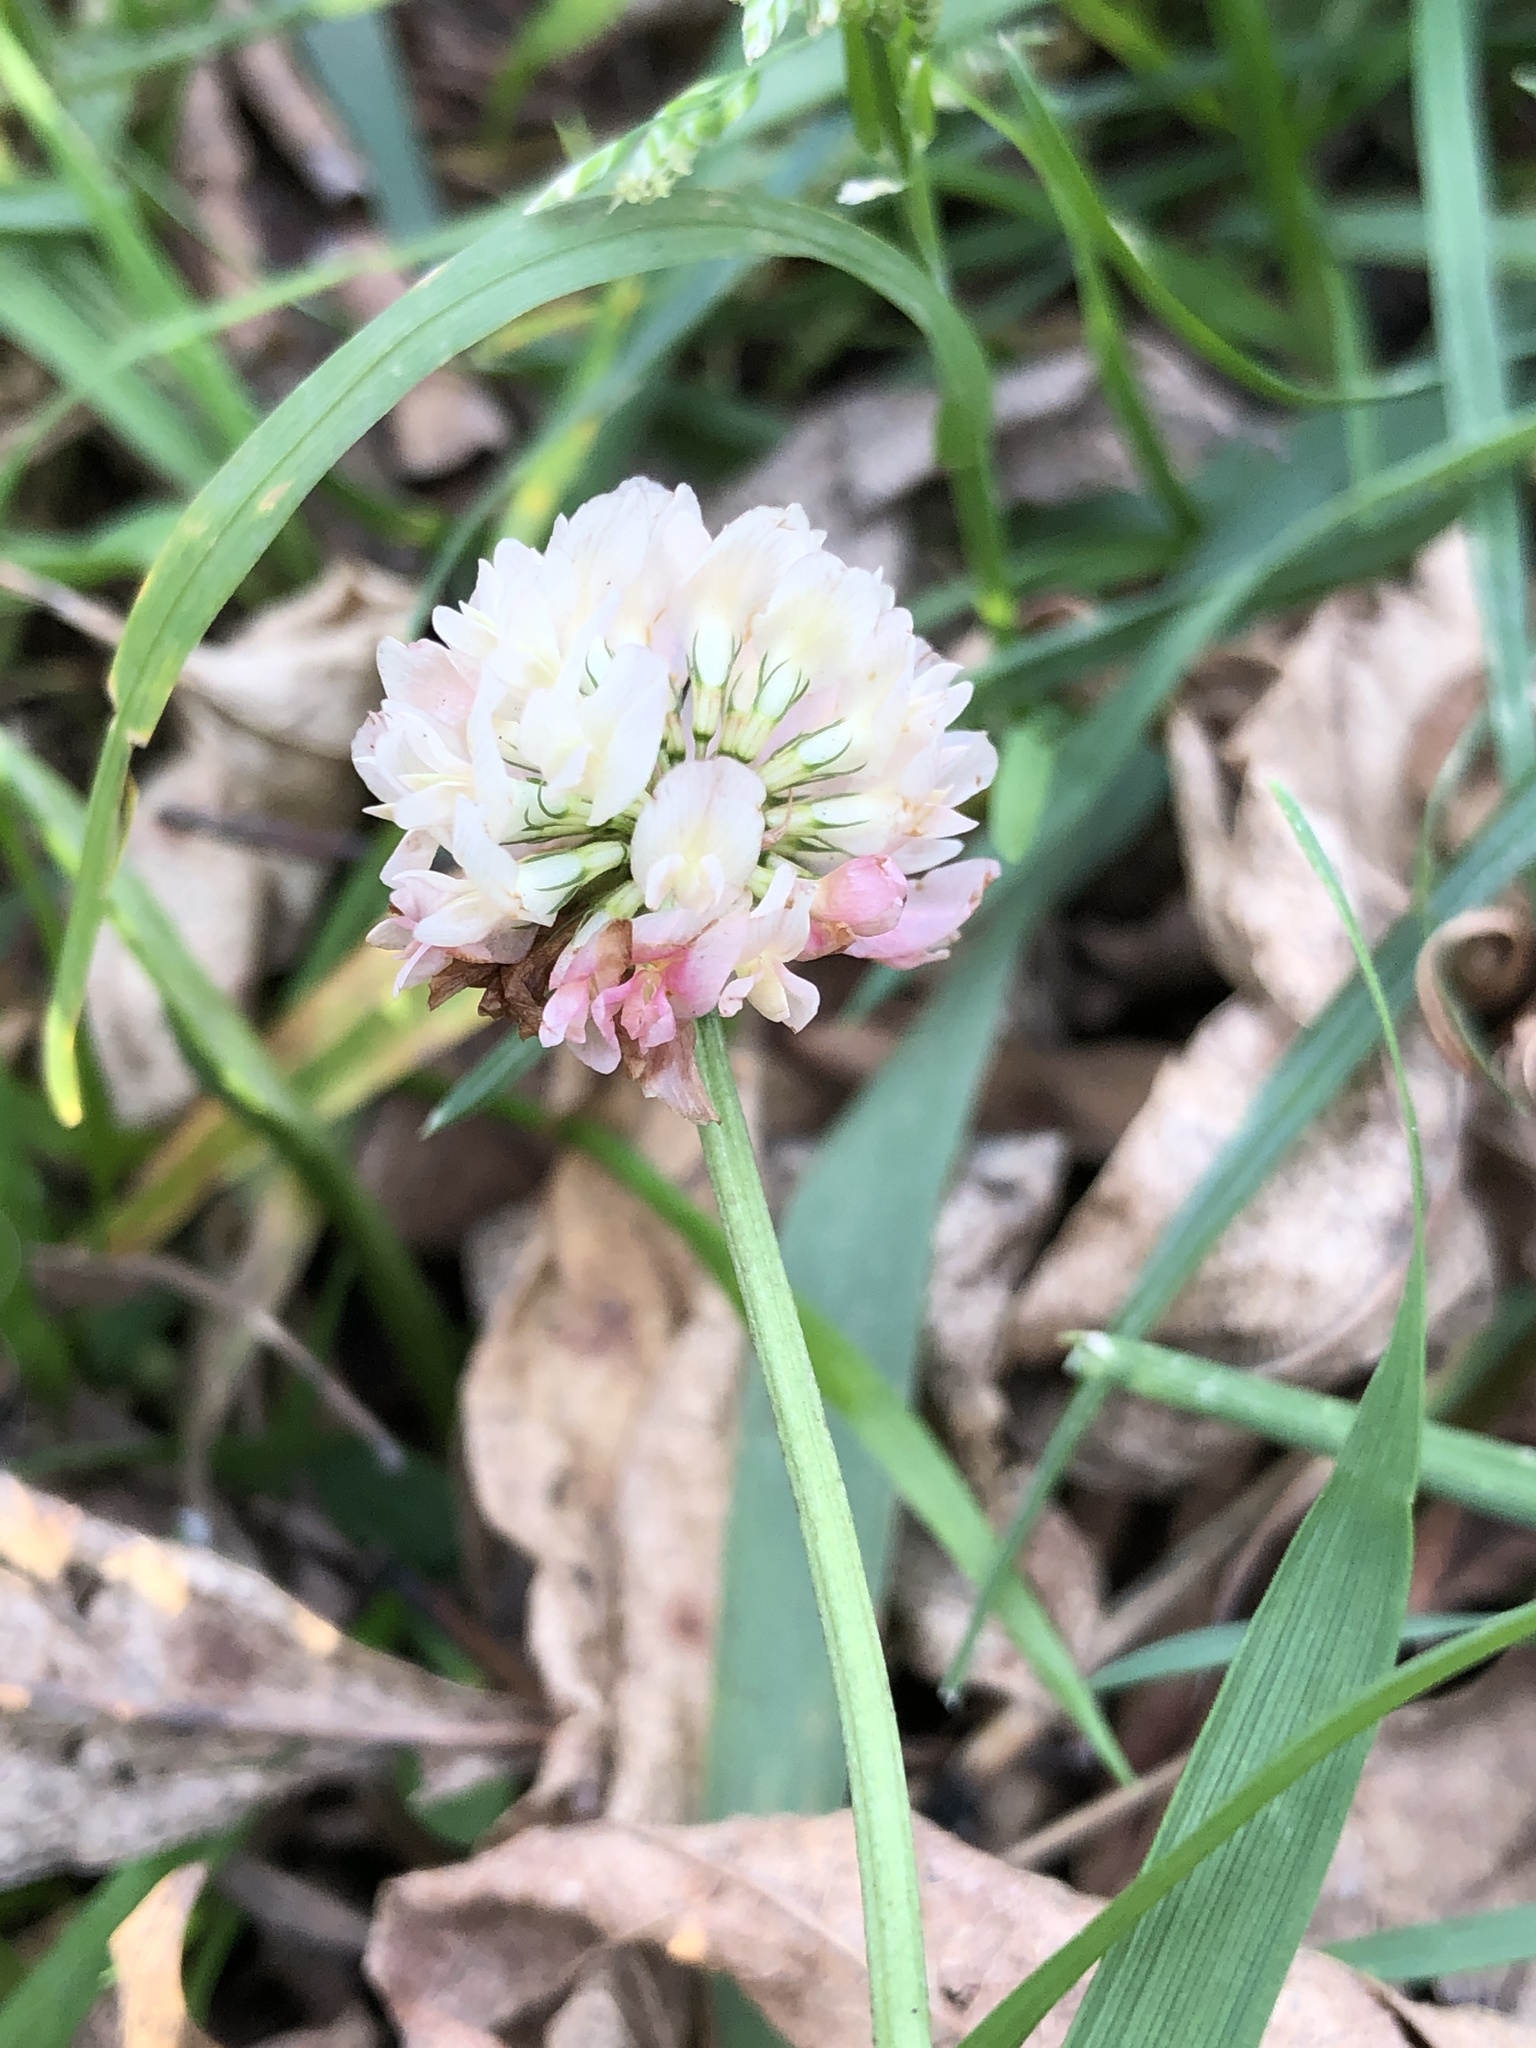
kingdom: Plantae
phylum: Tracheophyta
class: Magnoliopsida
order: Fabales
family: Fabaceae
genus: Trifolium
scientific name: Trifolium hybridum
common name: Alsike clover
